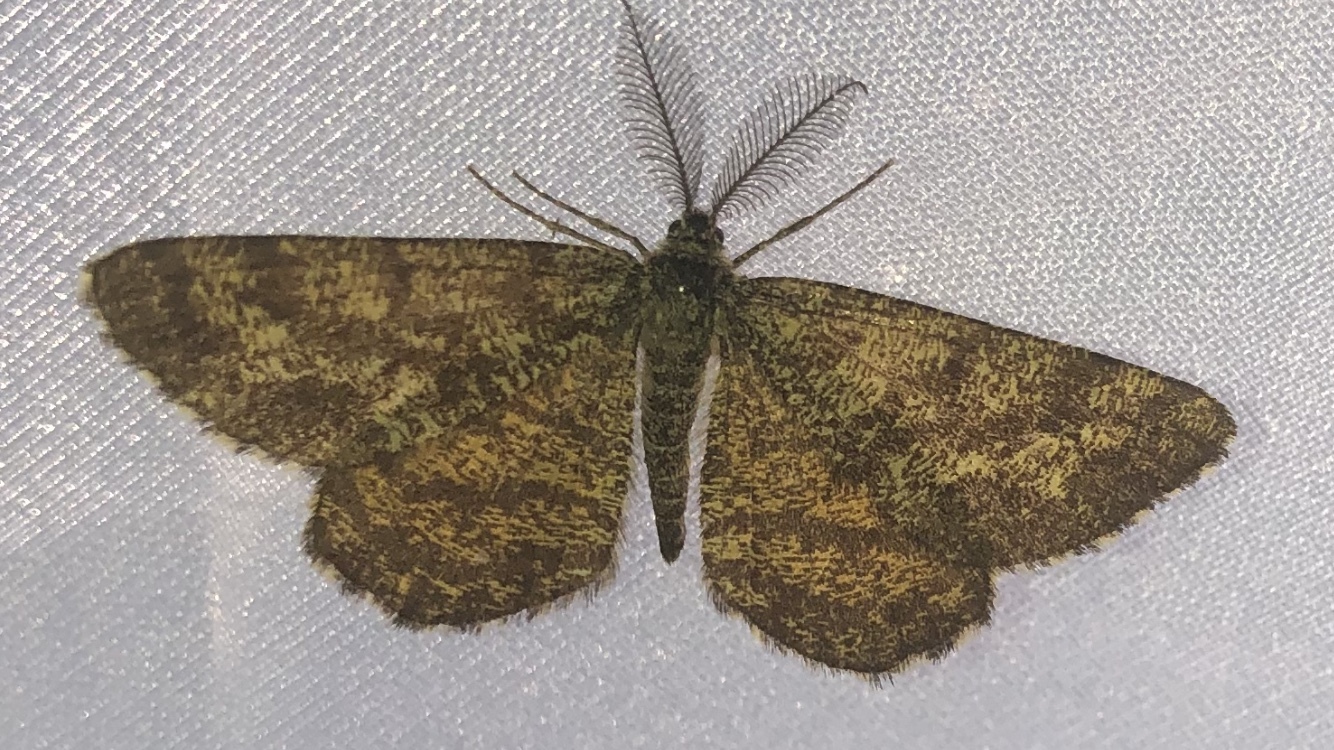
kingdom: Animalia
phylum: Arthropoda
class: Insecta
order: Lepidoptera
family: Geometridae
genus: Ematurga
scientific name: Ematurga atomaria
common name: Common heath
